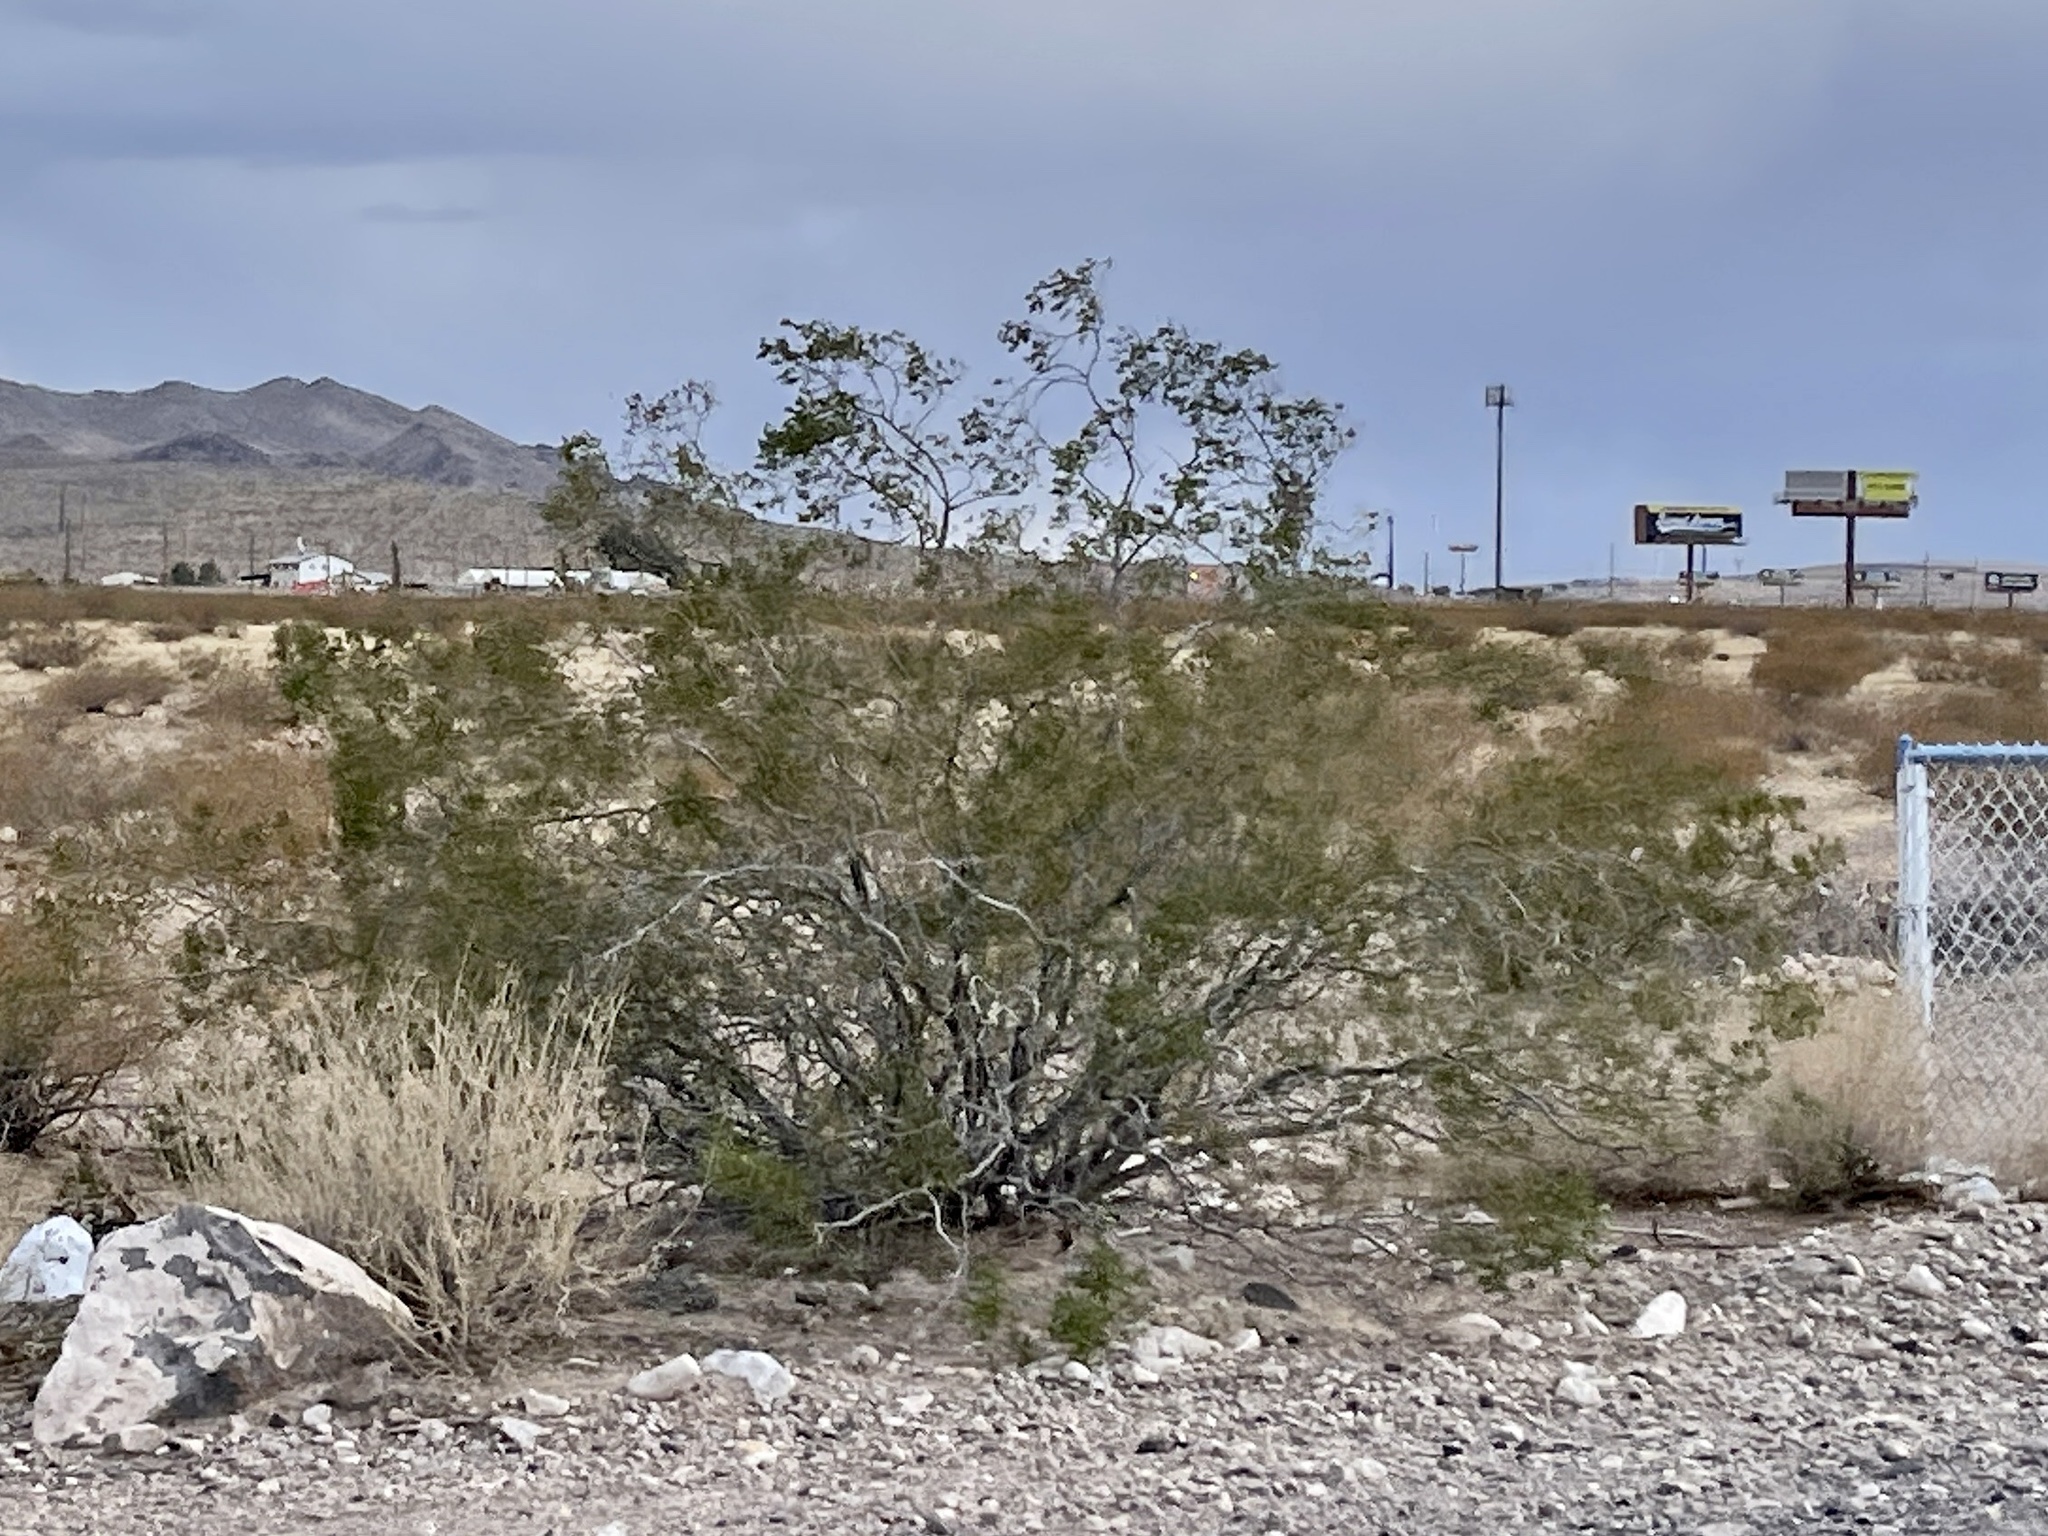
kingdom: Plantae
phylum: Tracheophyta
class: Magnoliopsida
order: Zygophyllales
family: Zygophyllaceae
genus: Larrea
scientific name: Larrea tridentata
